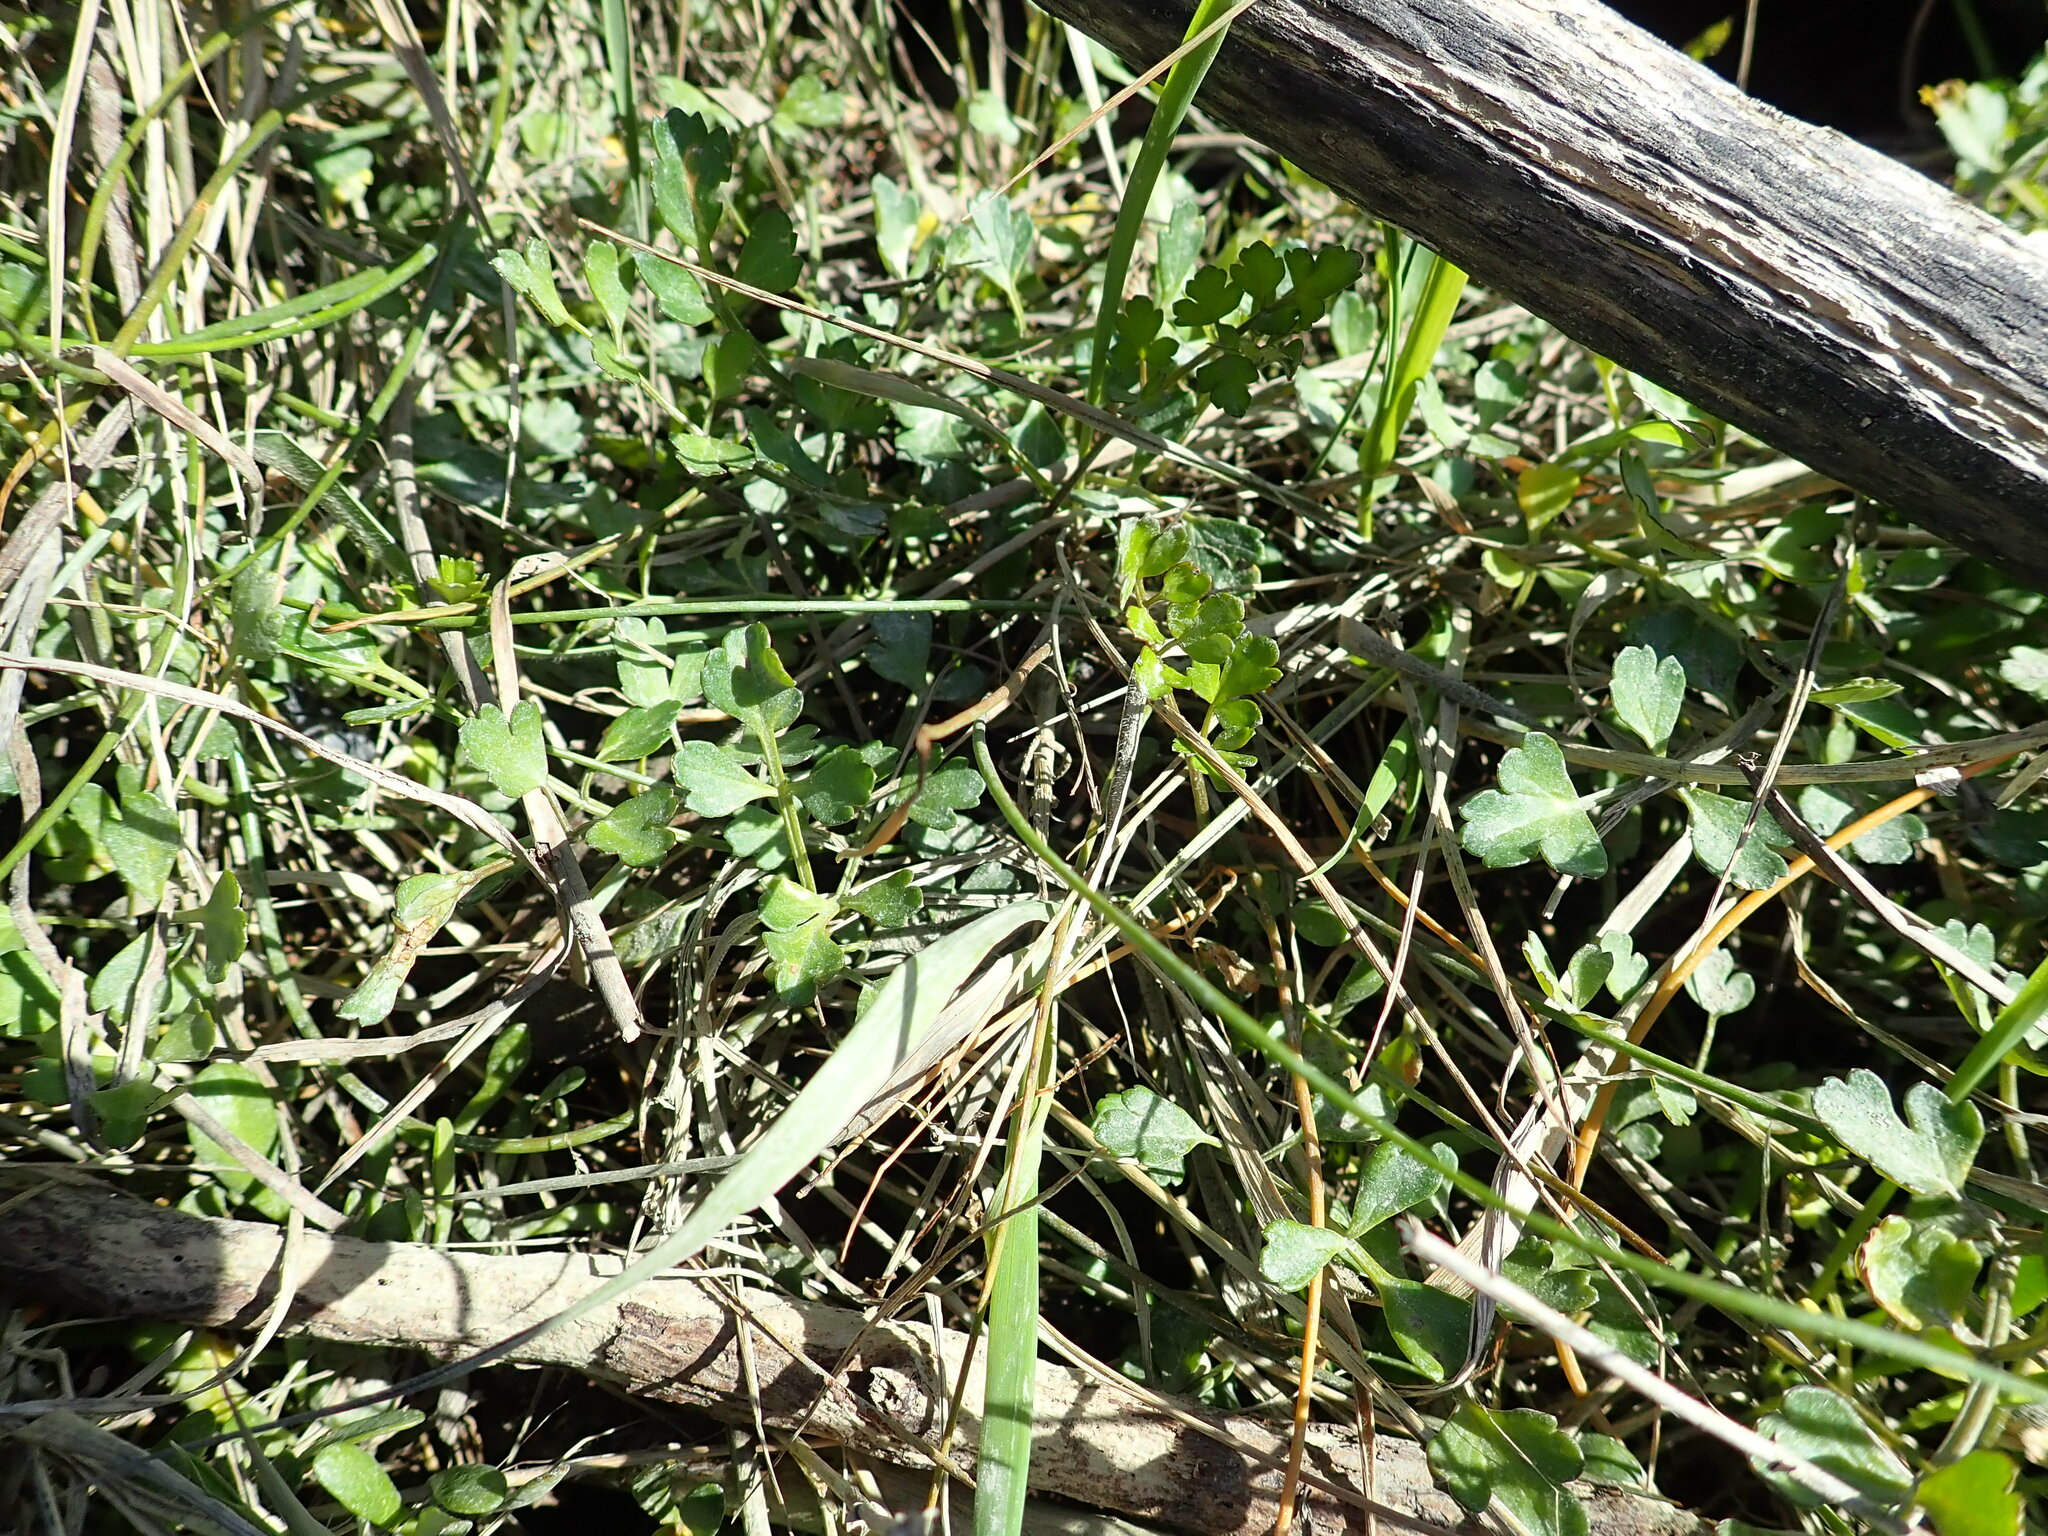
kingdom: Plantae
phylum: Tracheophyta
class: Magnoliopsida
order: Apiales
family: Apiaceae
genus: Apium
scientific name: Apium prostratum
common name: Prostrate marshwort
